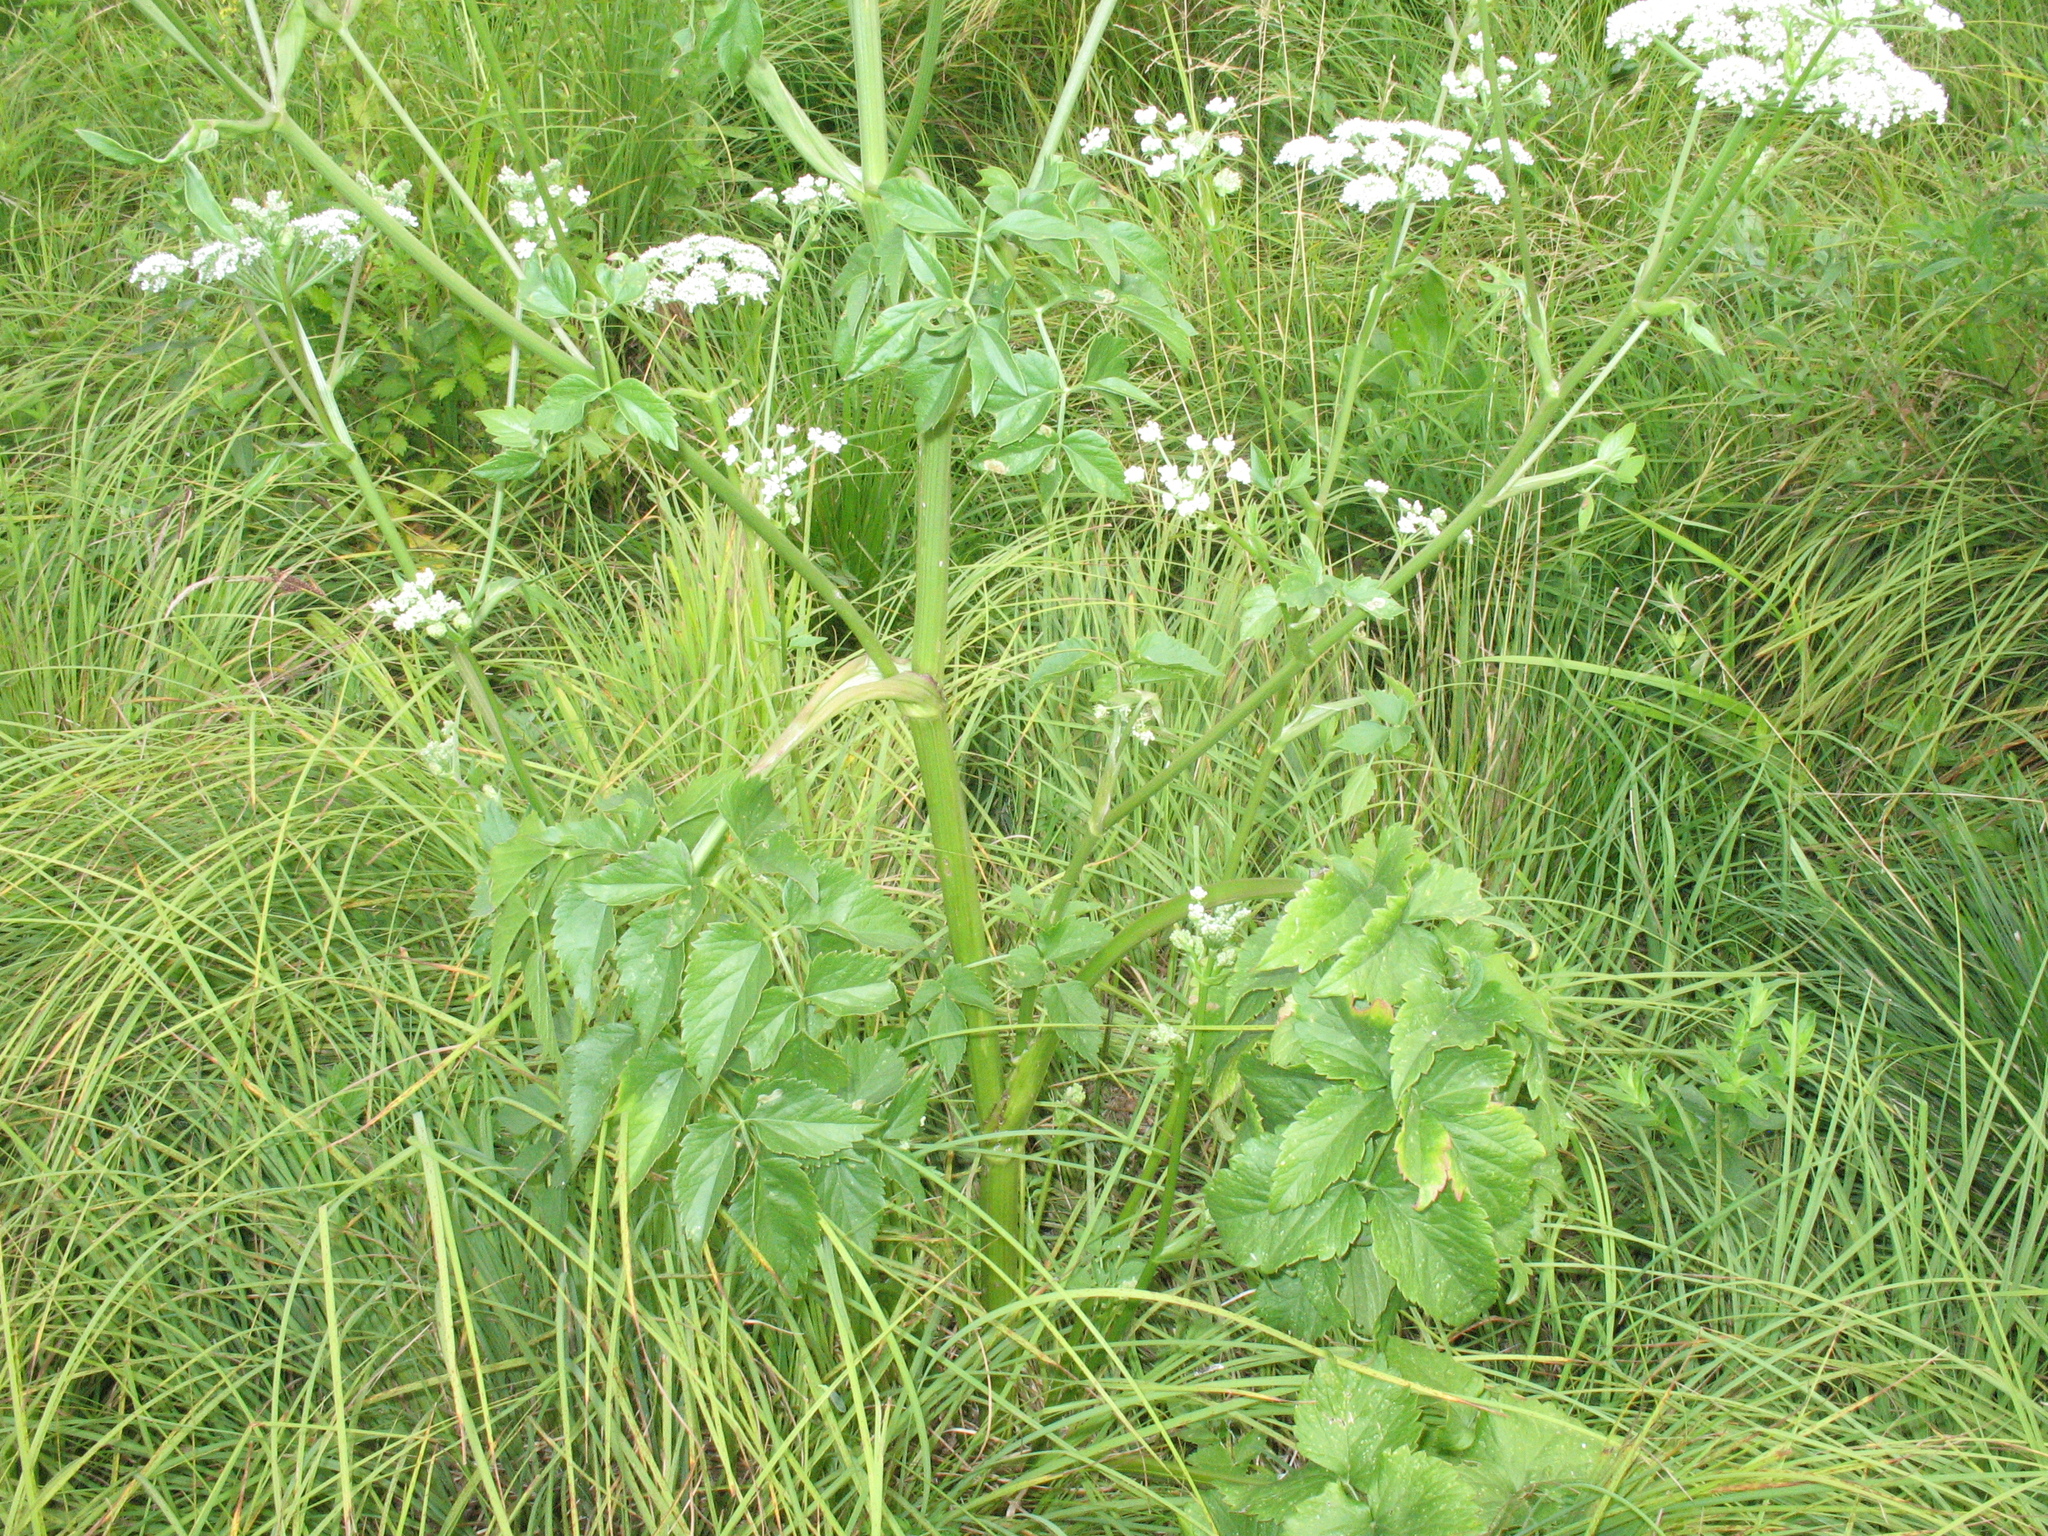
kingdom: Plantae
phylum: Tracheophyta
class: Magnoliopsida
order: Apiales
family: Apiaceae
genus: Ostericum
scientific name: Ostericum palustre
